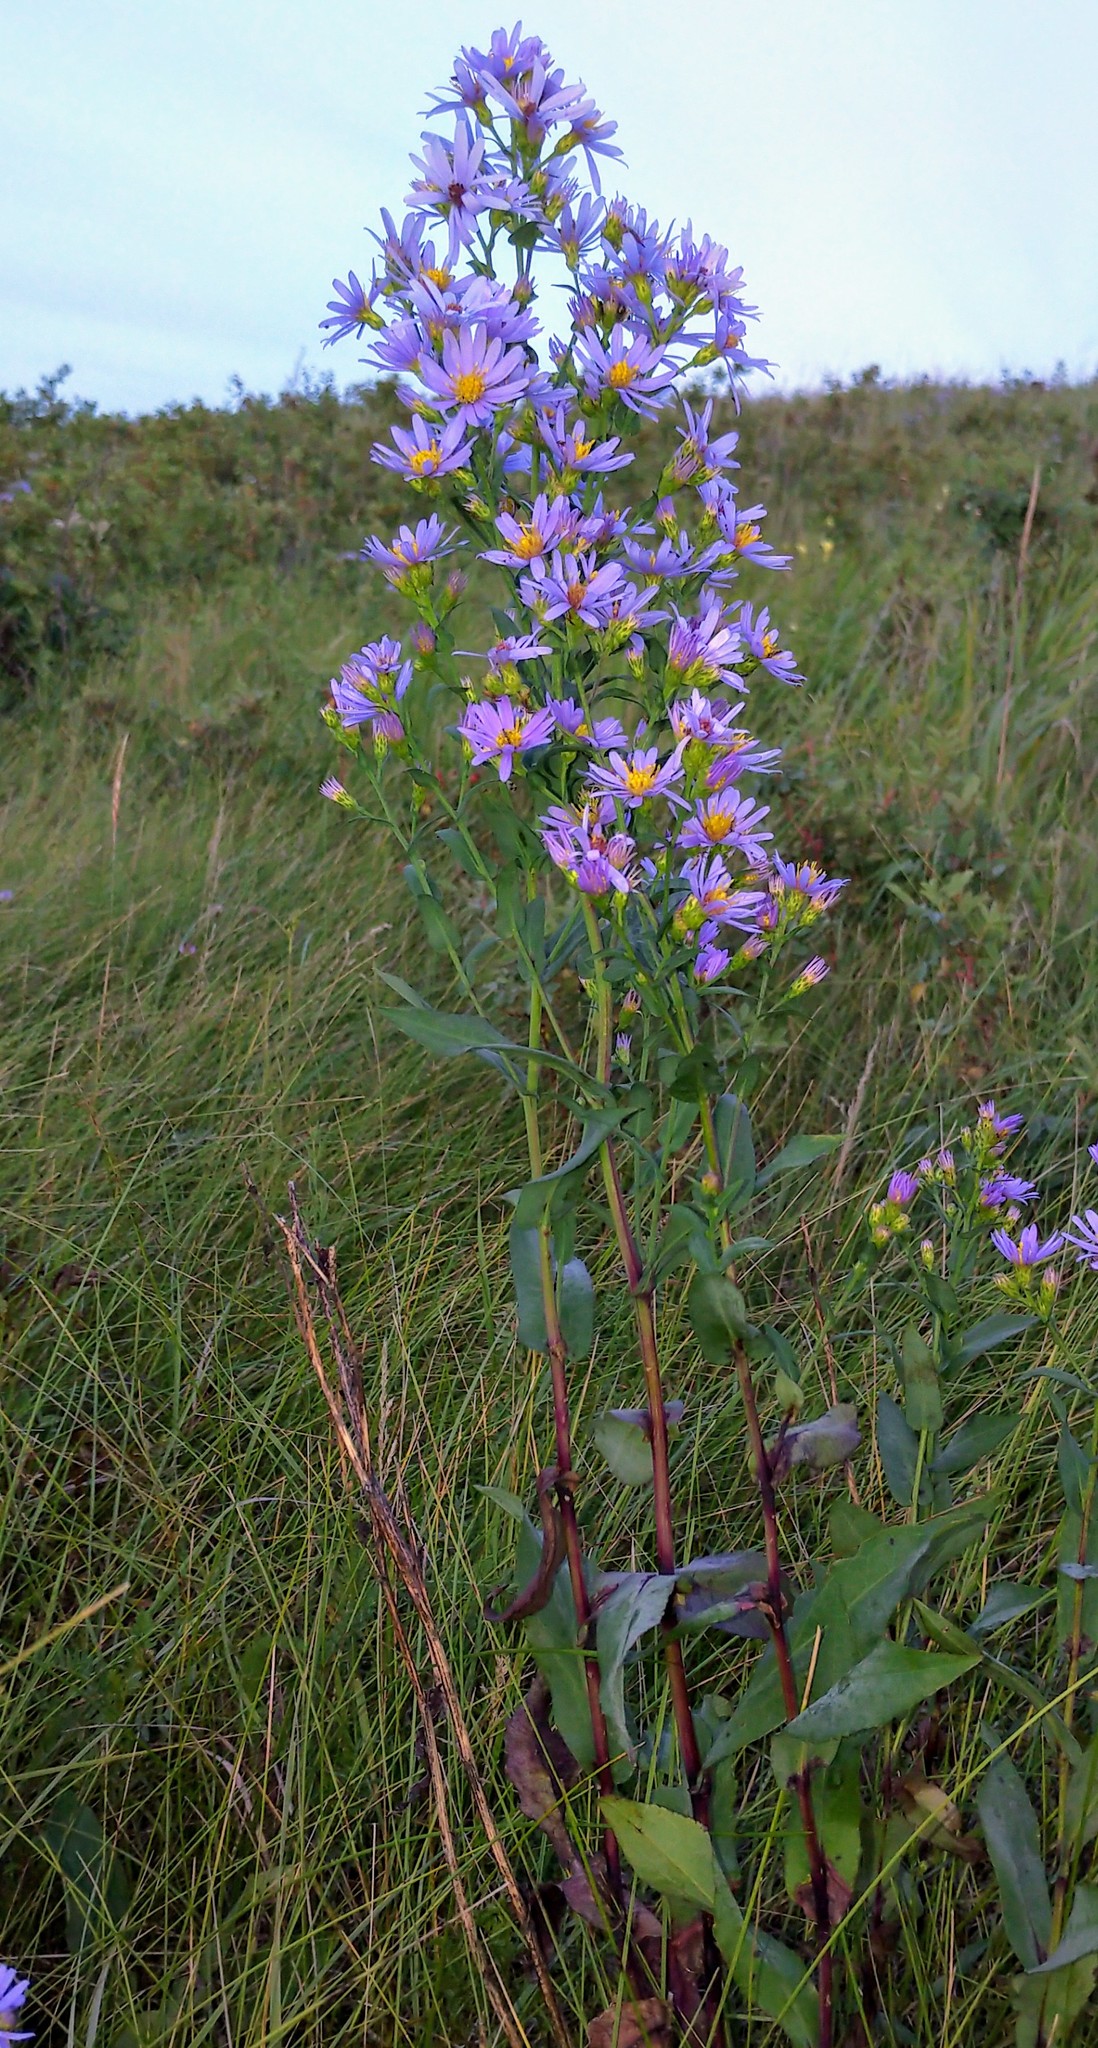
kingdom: Plantae
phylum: Tracheophyta
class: Magnoliopsida
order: Asterales
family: Asteraceae
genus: Symphyotrichum
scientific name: Symphyotrichum laeve
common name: Glaucous aster
